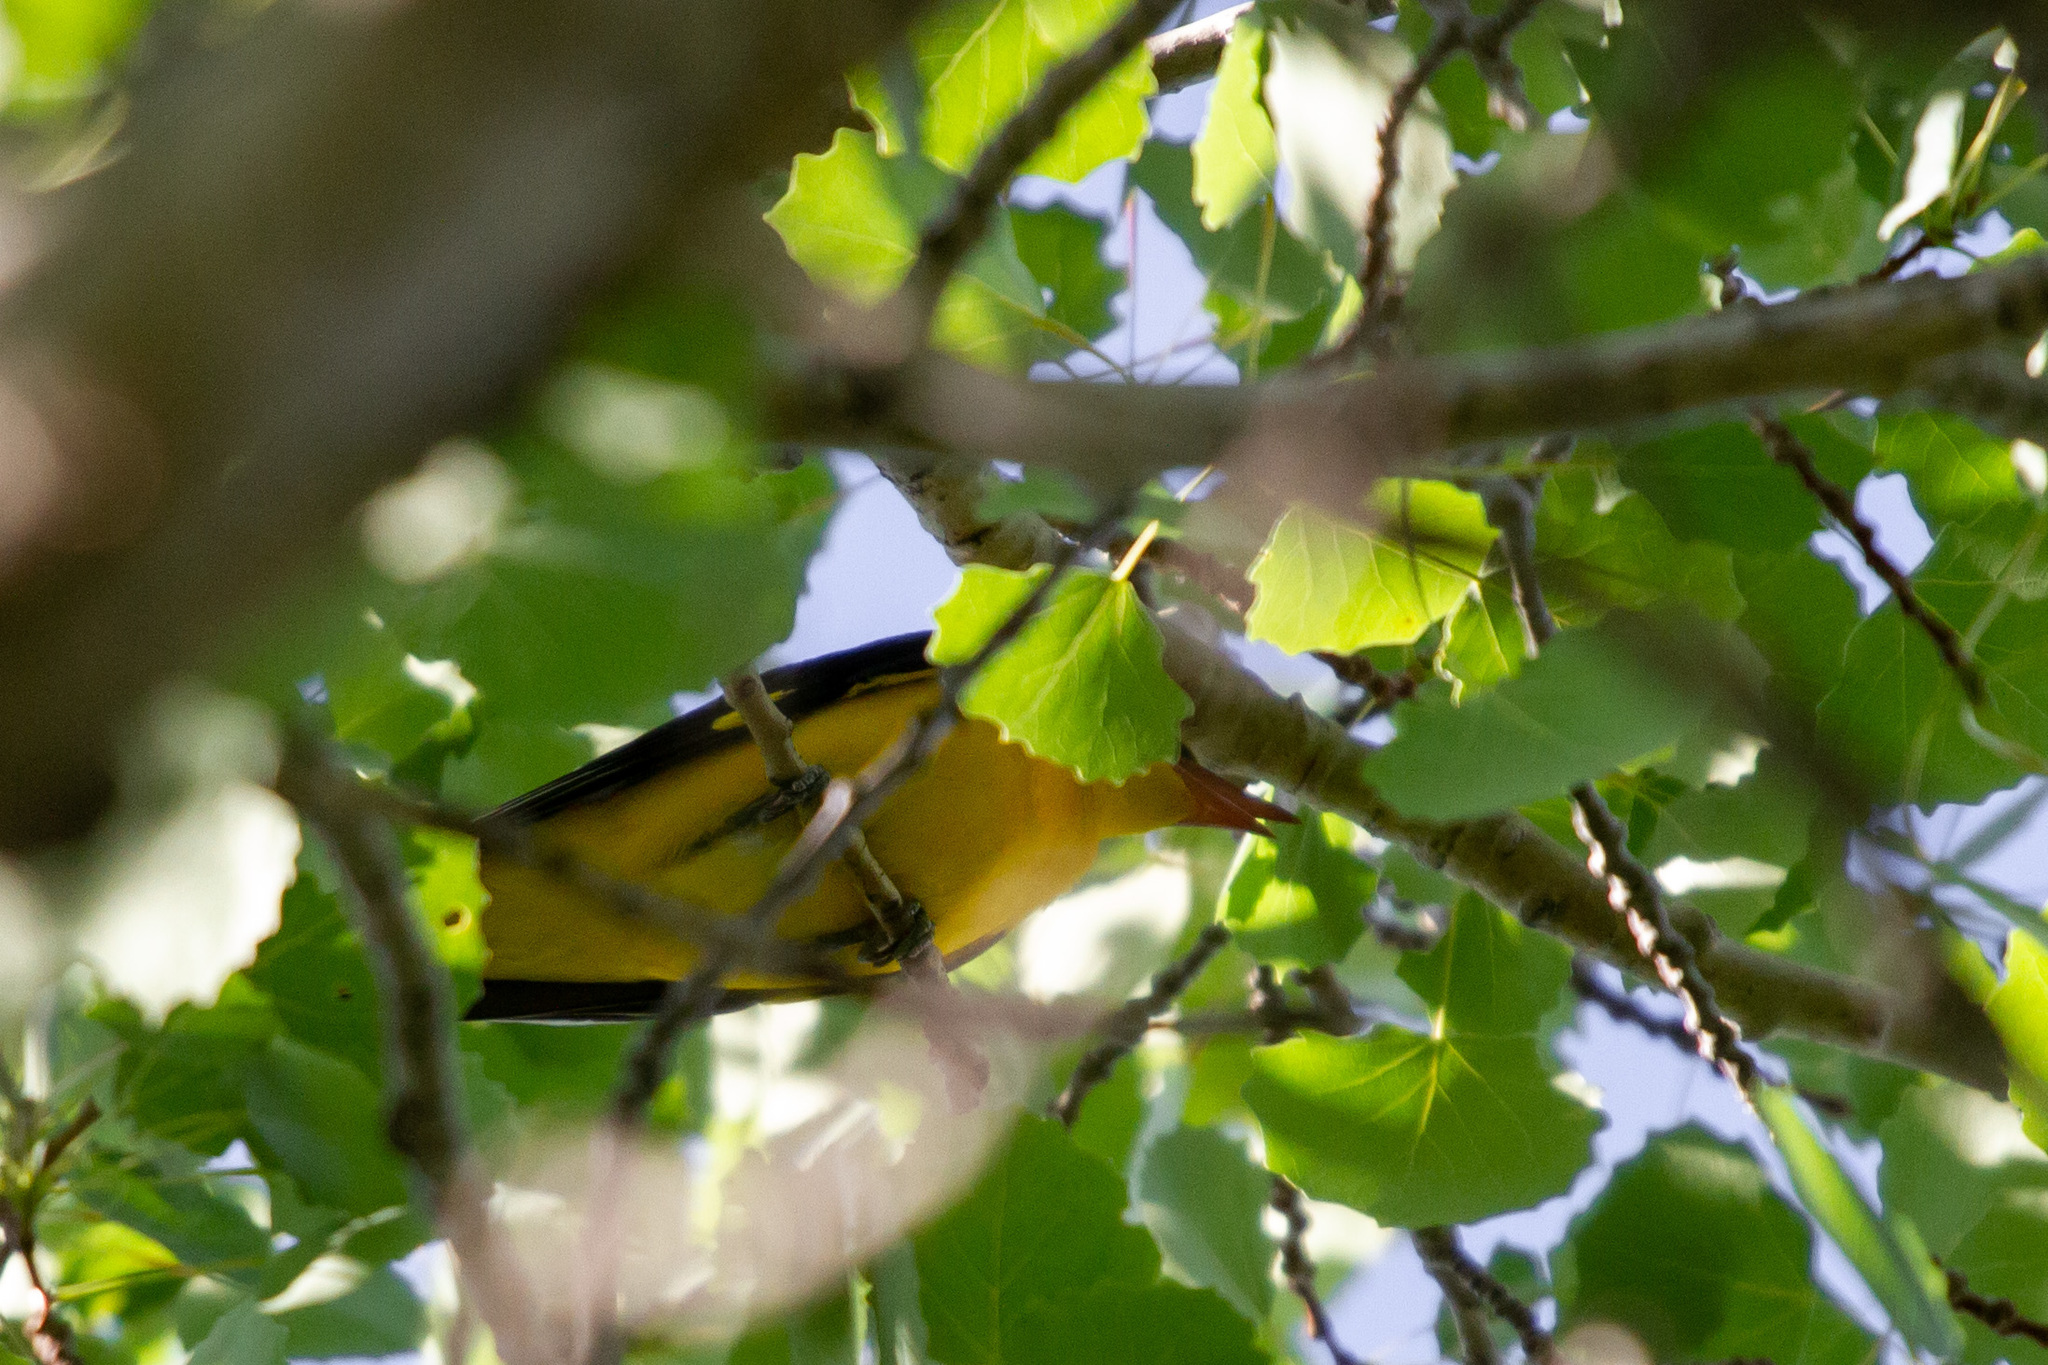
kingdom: Animalia
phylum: Chordata
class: Aves
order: Passeriformes
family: Oriolidae
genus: Oriolus
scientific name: Oriolus oriolus
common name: Eurasian golden oriole
